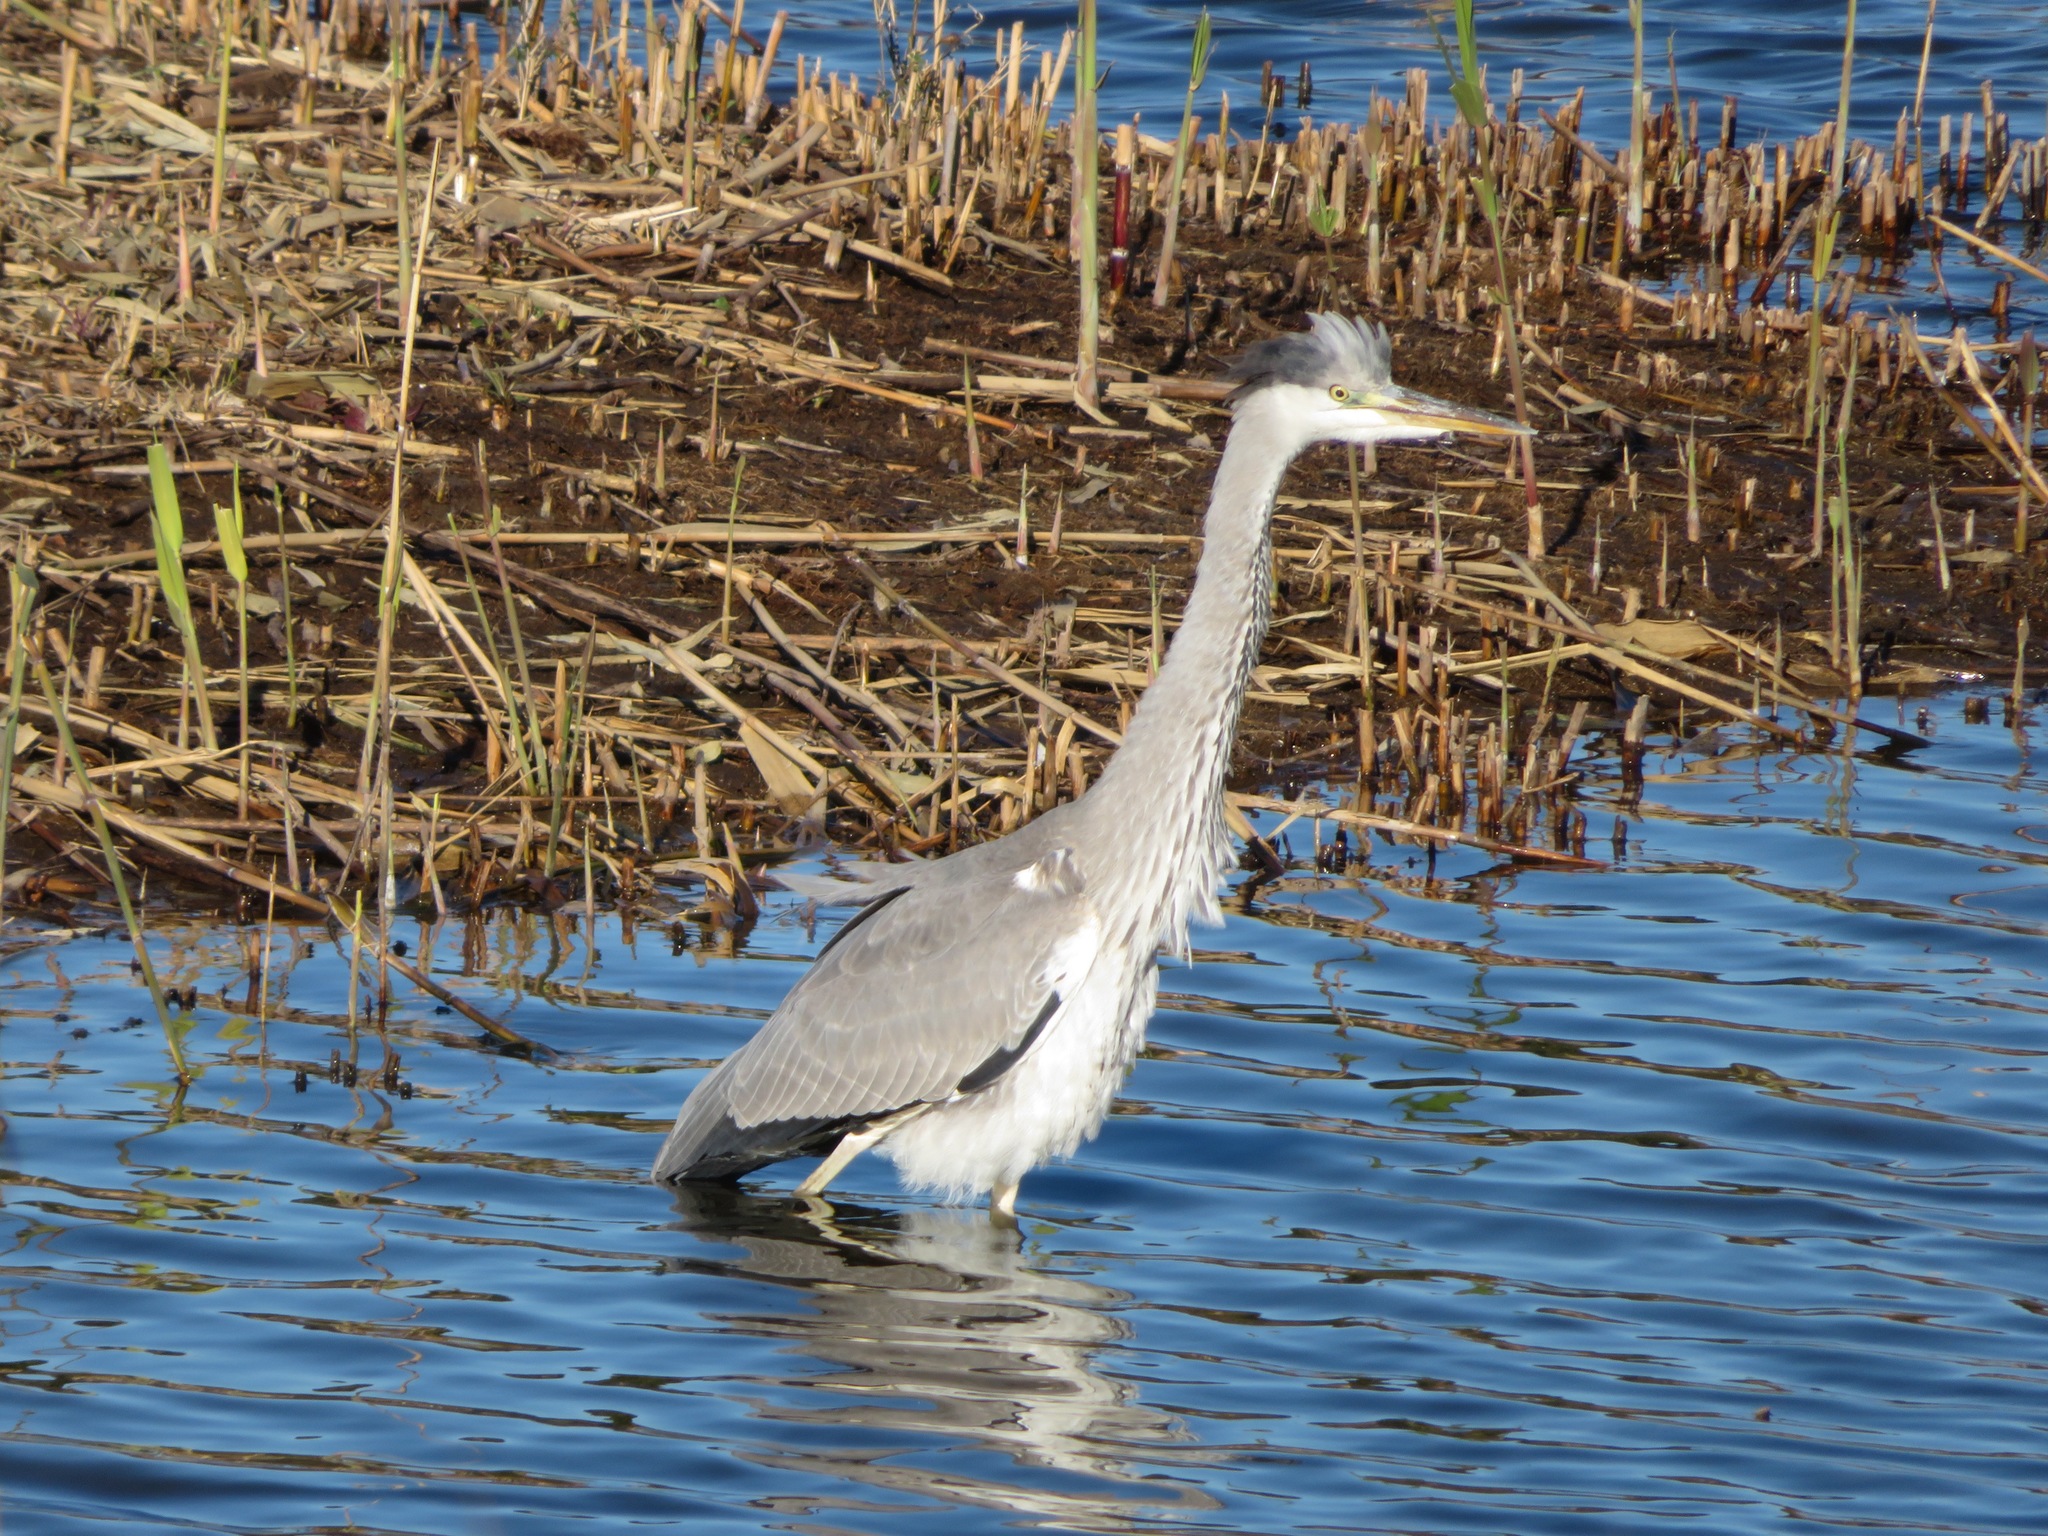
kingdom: Animalia
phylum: Chordata
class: Aves
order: Pelecaniformes
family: Ardeidae
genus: Ardea
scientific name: Ardea cinerea
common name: Grey heron
